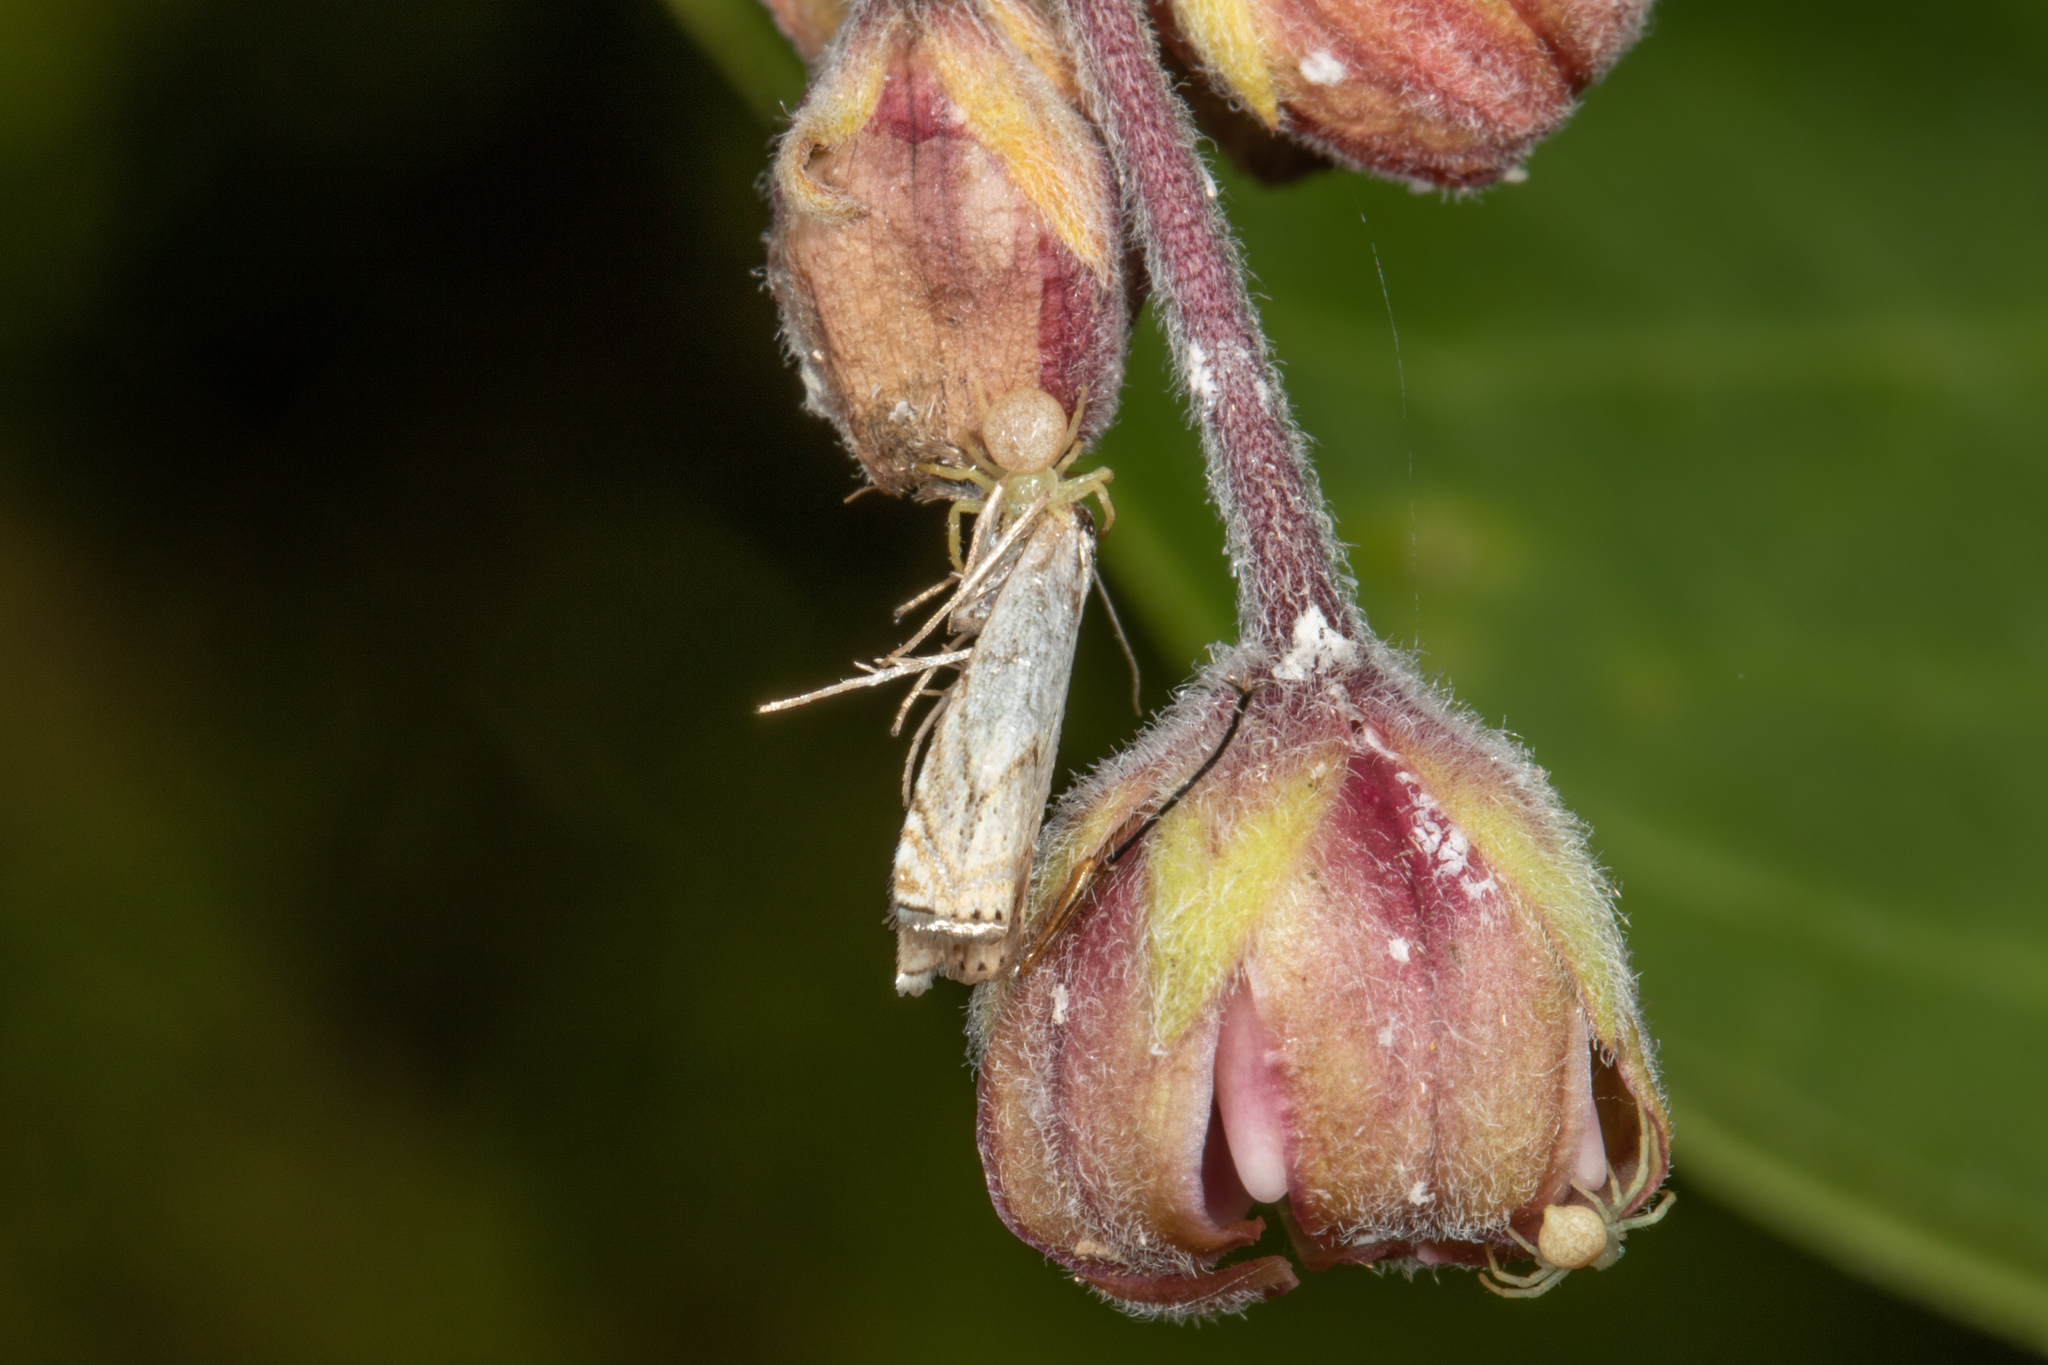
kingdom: Animalia
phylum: Arthropoda
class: Insecta
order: Lepidoptera
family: Crambidae
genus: Crambus
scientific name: Crambus albellus
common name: Small white grass-veneer
